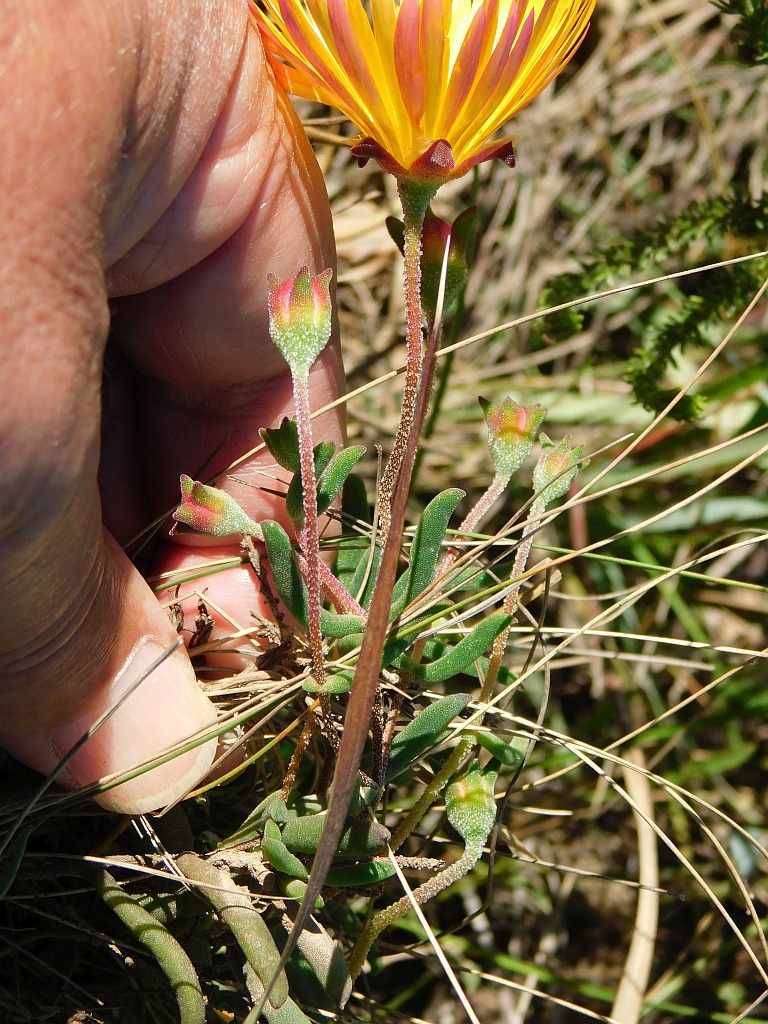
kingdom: Plantae
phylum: Tracheophyta
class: Magnoliopsida
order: Caryophyllales
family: Aizoaceae
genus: Drosanthemum
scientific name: Drosanthemum flavum
